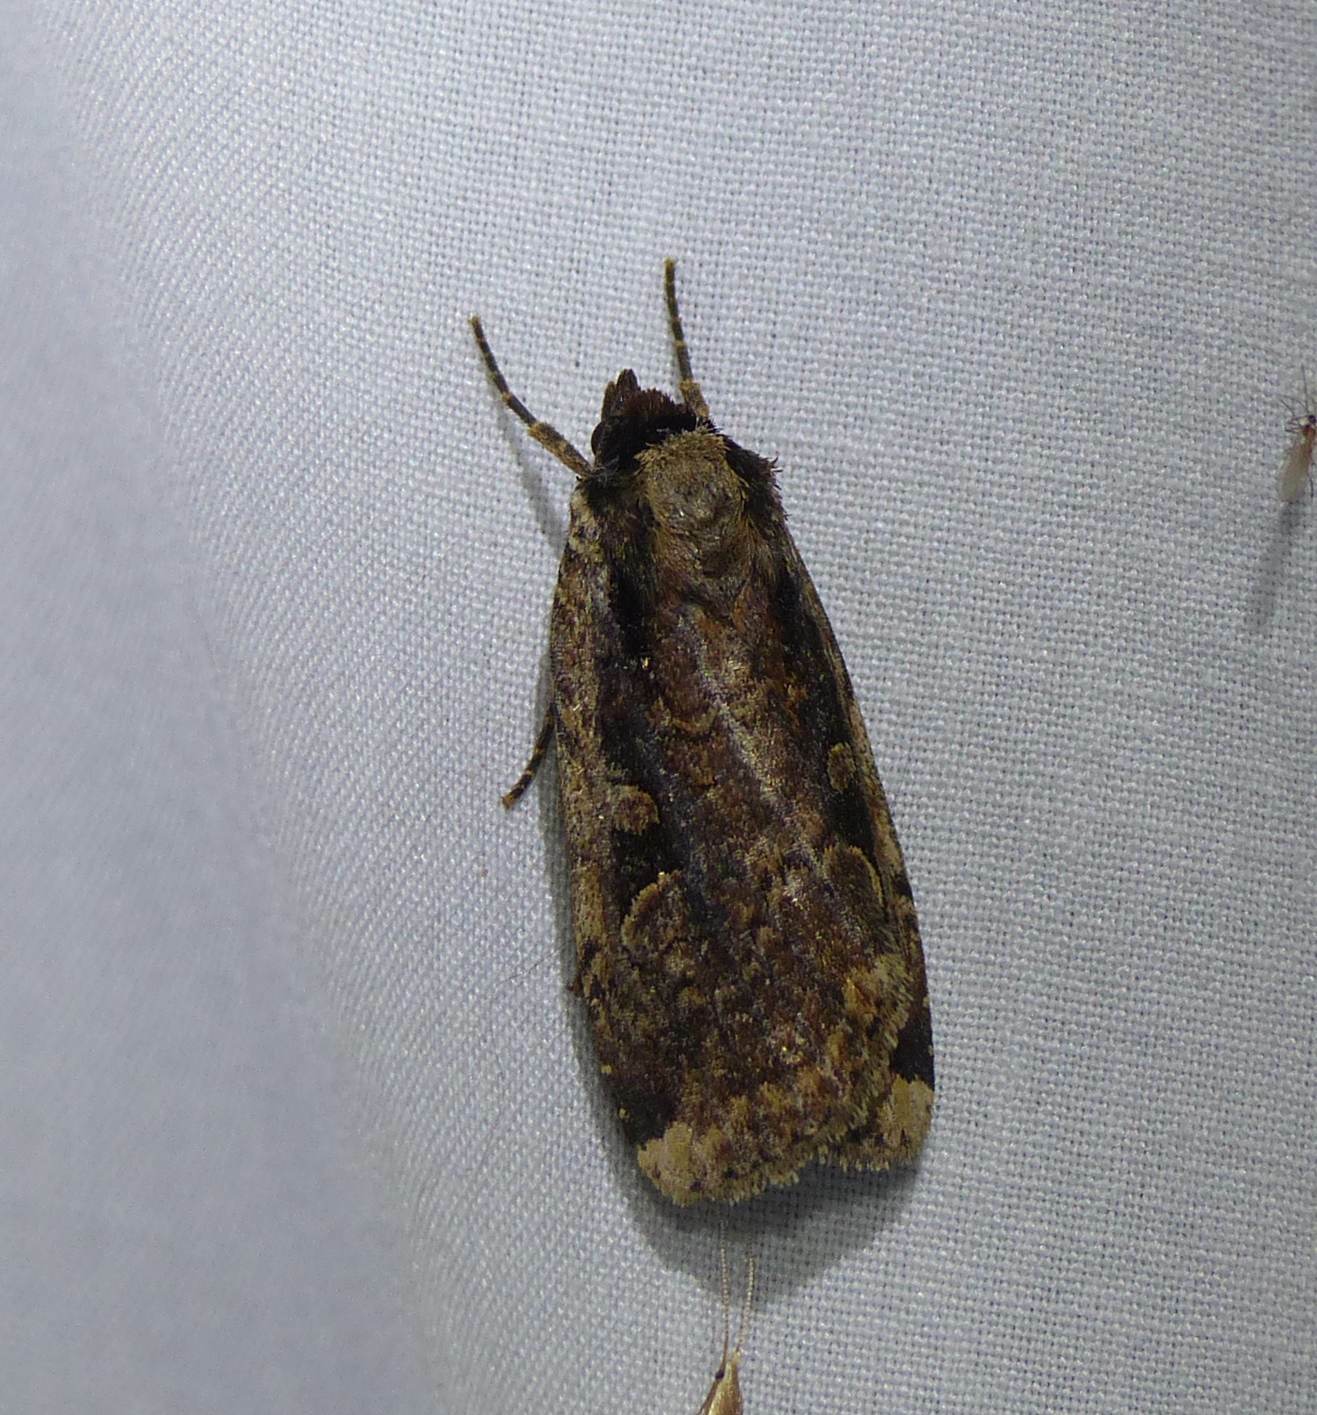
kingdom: Animalia
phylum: Arthropoda
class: Insecta
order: Lepidoptera
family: Noctuidae
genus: Eueretagrotis
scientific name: Eueretagrotis sigmoides
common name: Sigmoid dart
